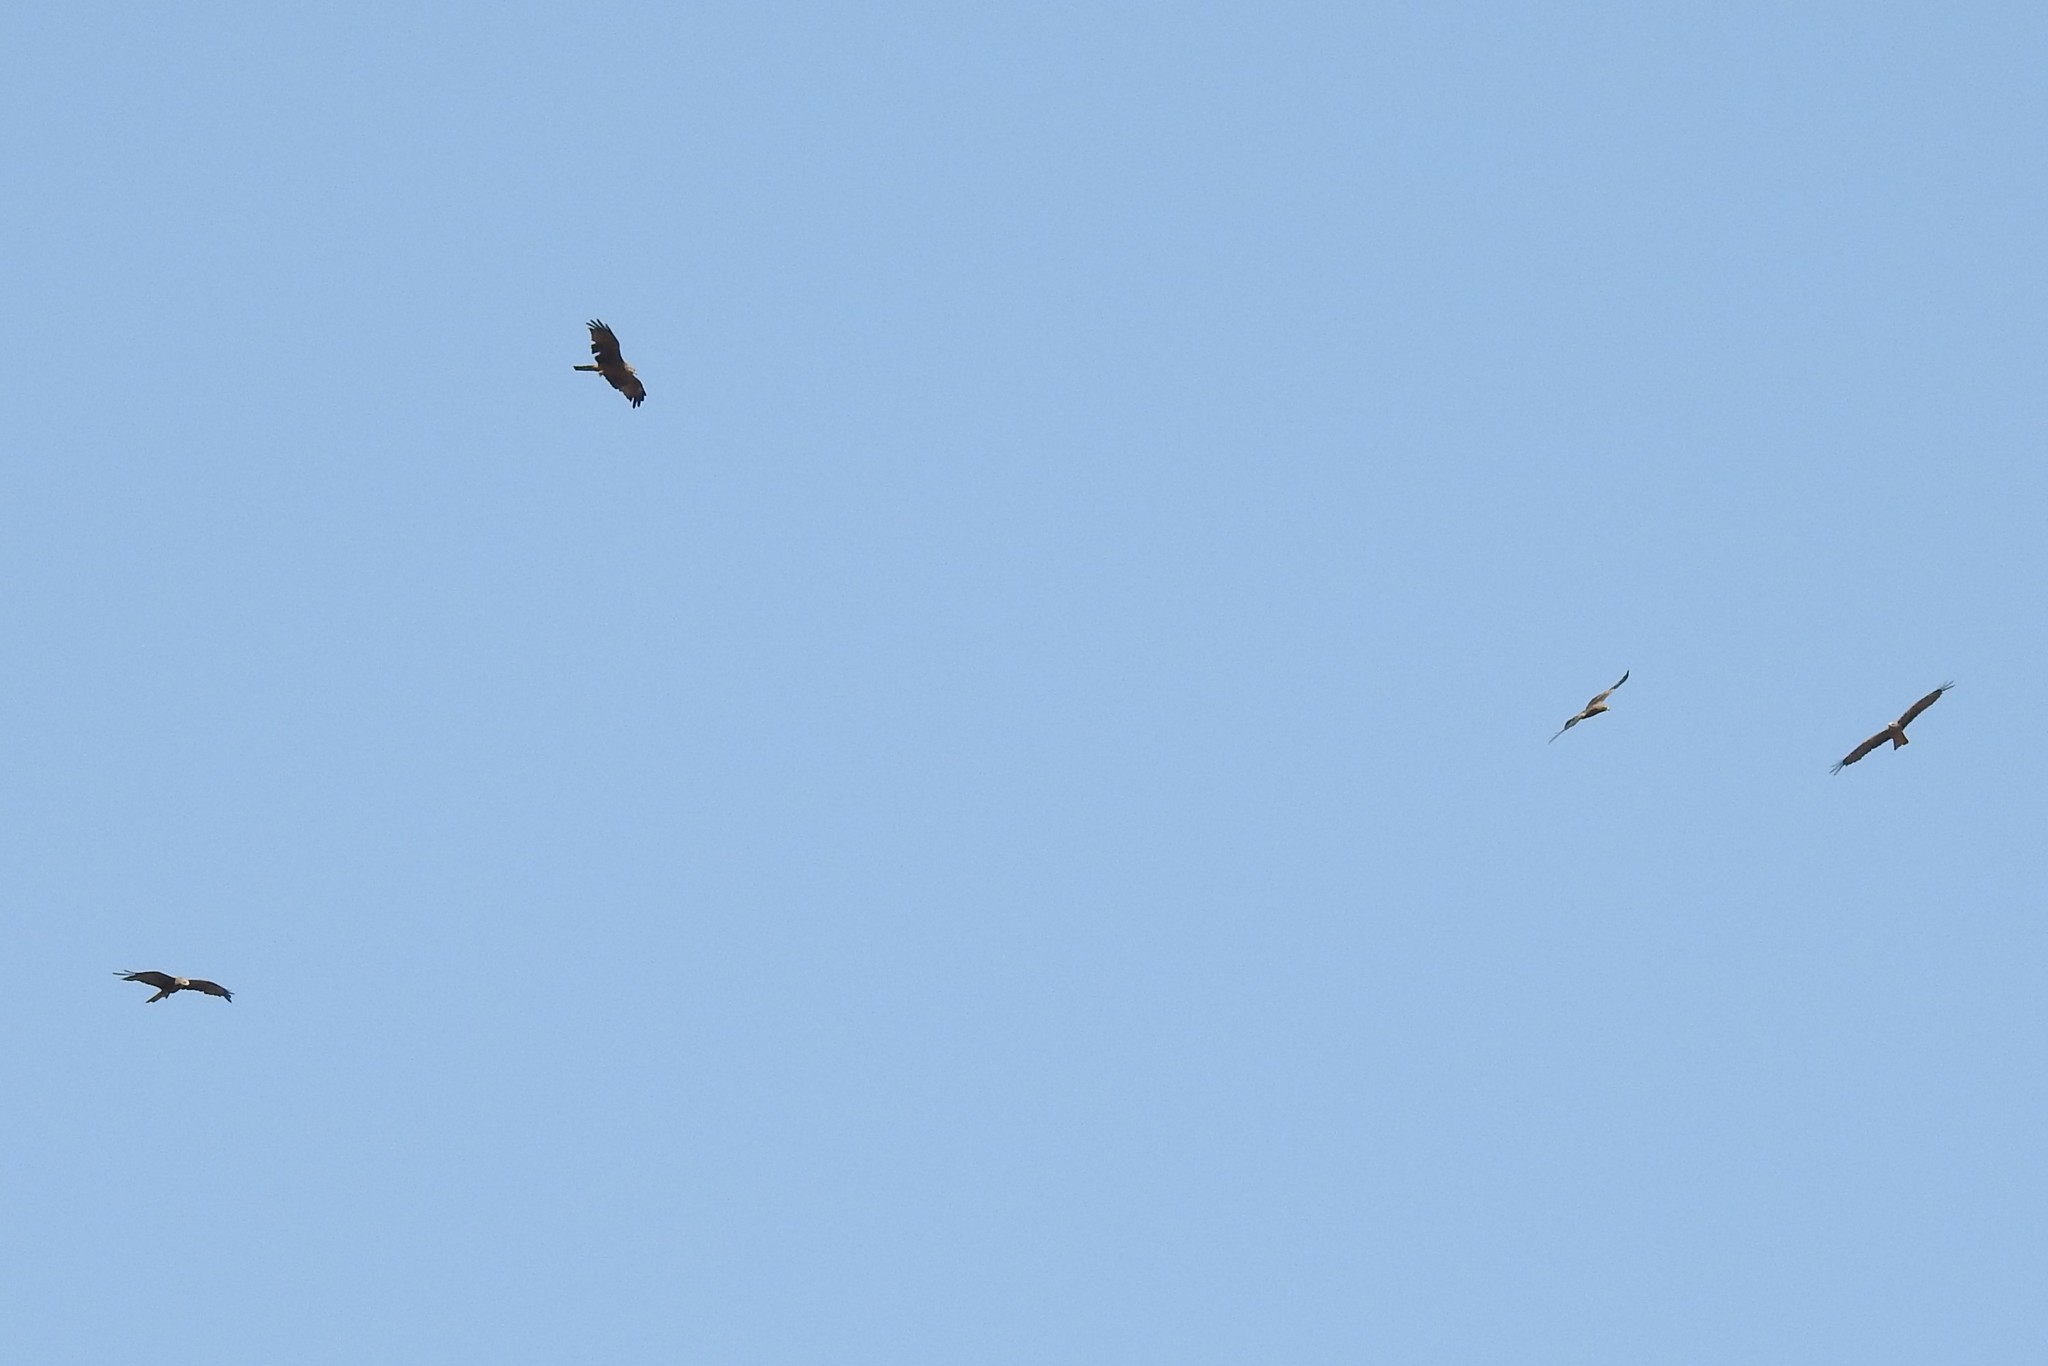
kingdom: Animalia
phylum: Chordata
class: Aves
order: Accipitriformes
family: Accipitridae
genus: Milvus
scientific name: Milvus migrans
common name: Black kite
